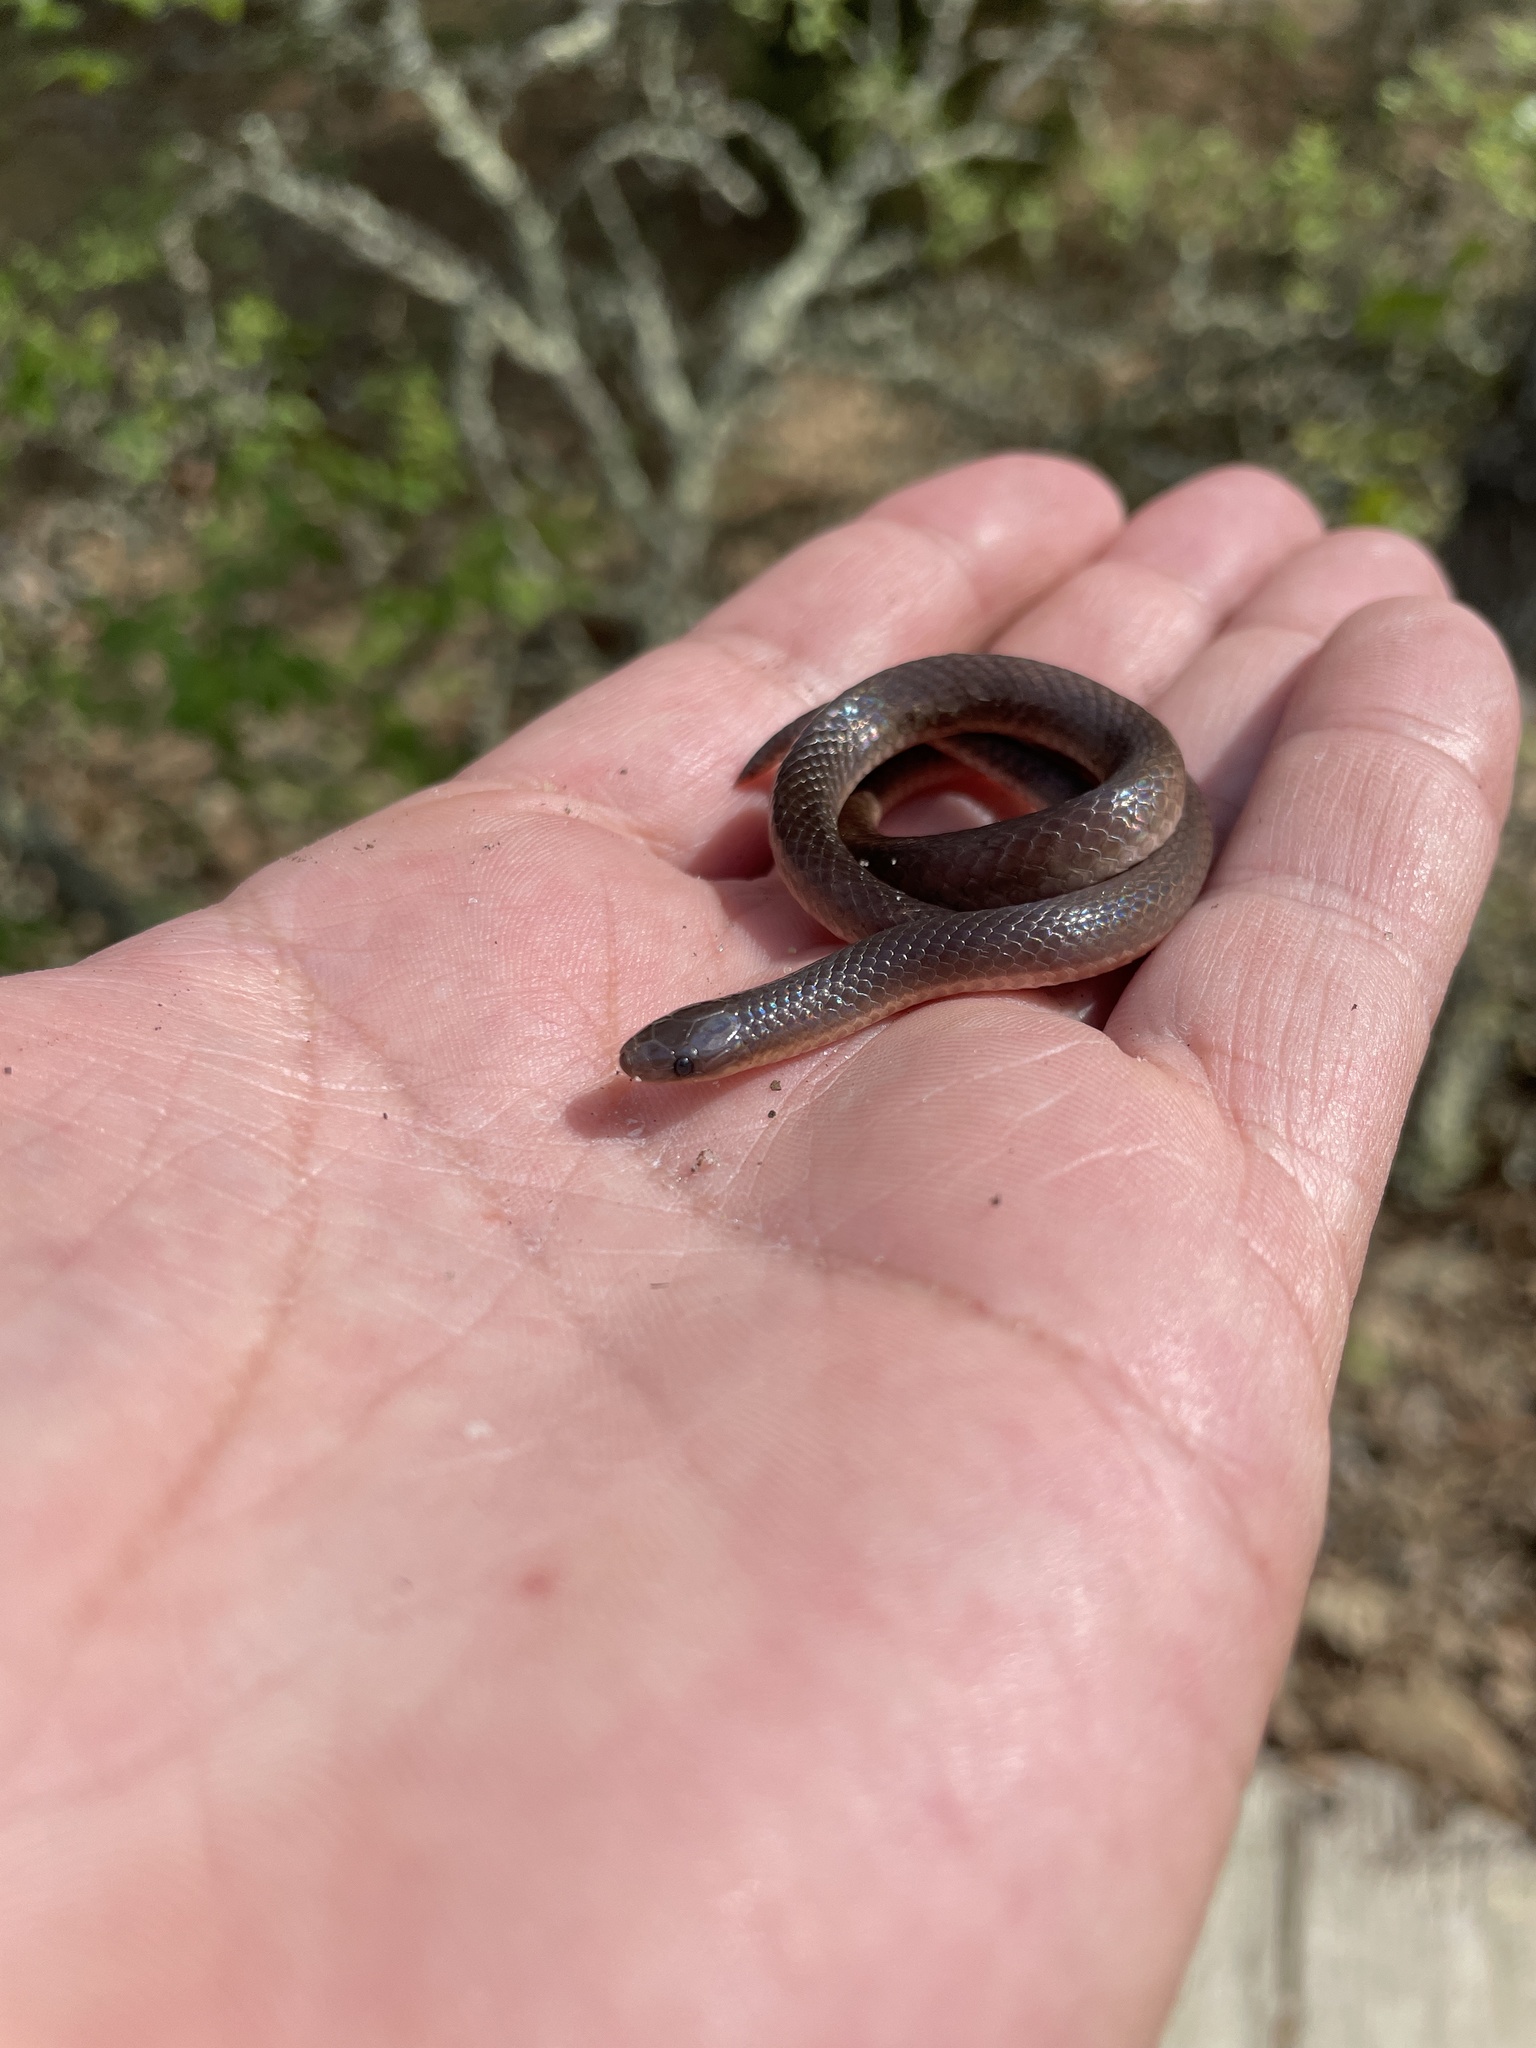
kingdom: Animalia
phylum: Chordata
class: Squamata
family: Colubridae
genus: Carphophis
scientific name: Carphophis amoenus
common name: Eastern worm snake
